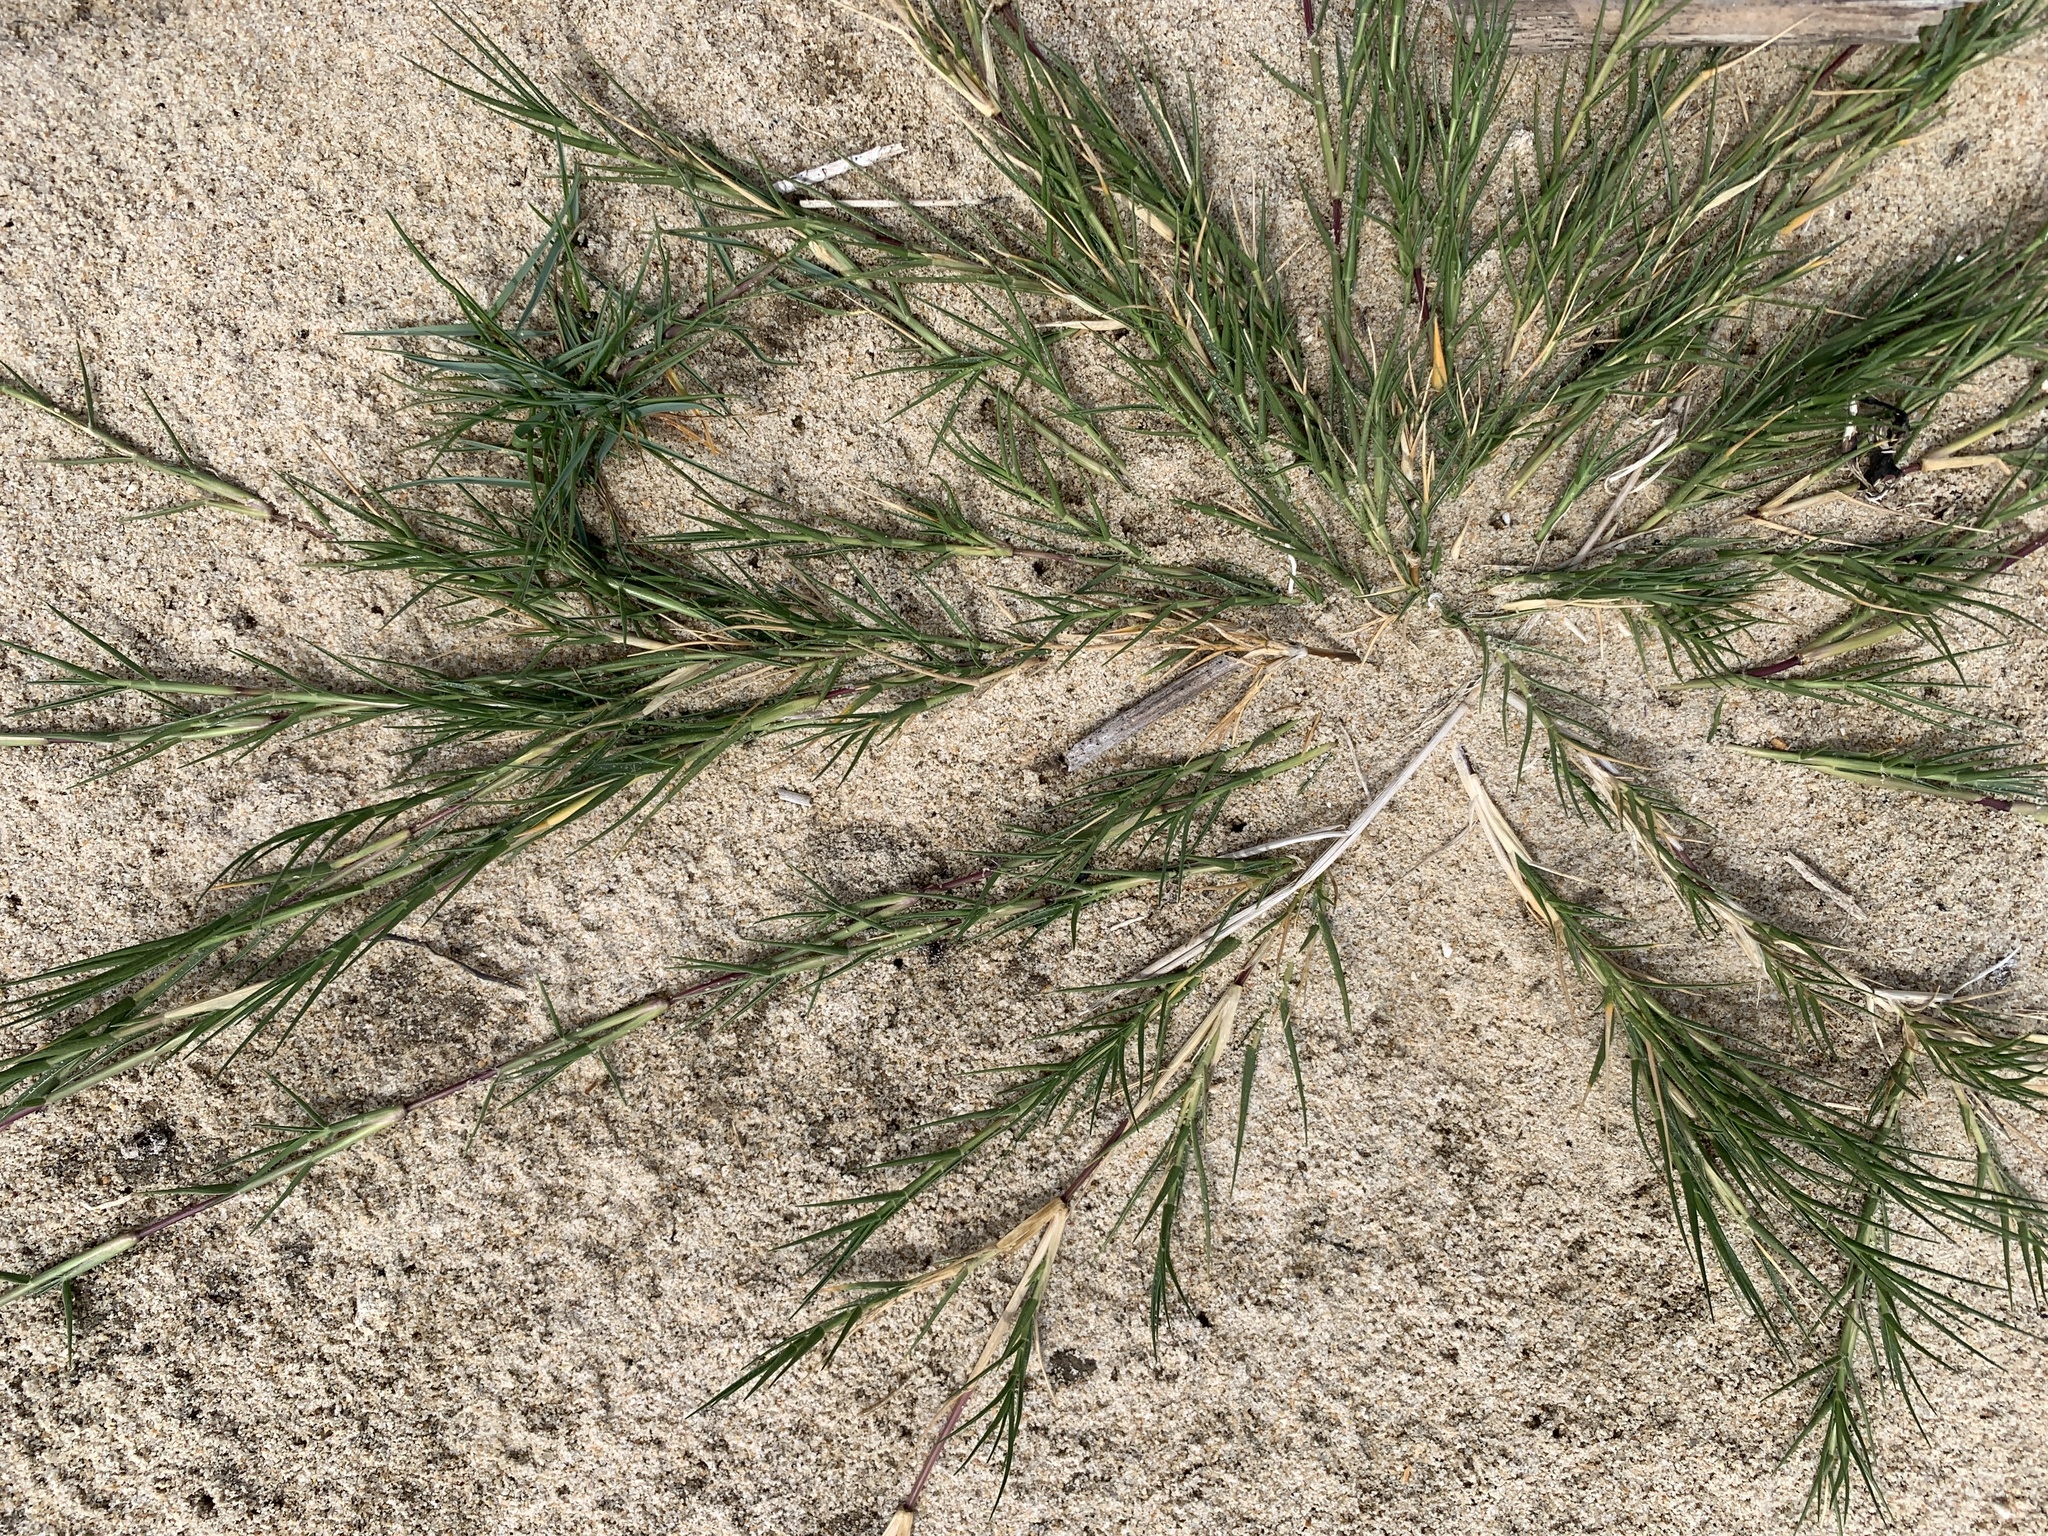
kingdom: Plantae
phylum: Tracheophyta
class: Liliopsida
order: Poales
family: Poaceae
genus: Sporobolus
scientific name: Sporobolus virginicus
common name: Beach dropseed
